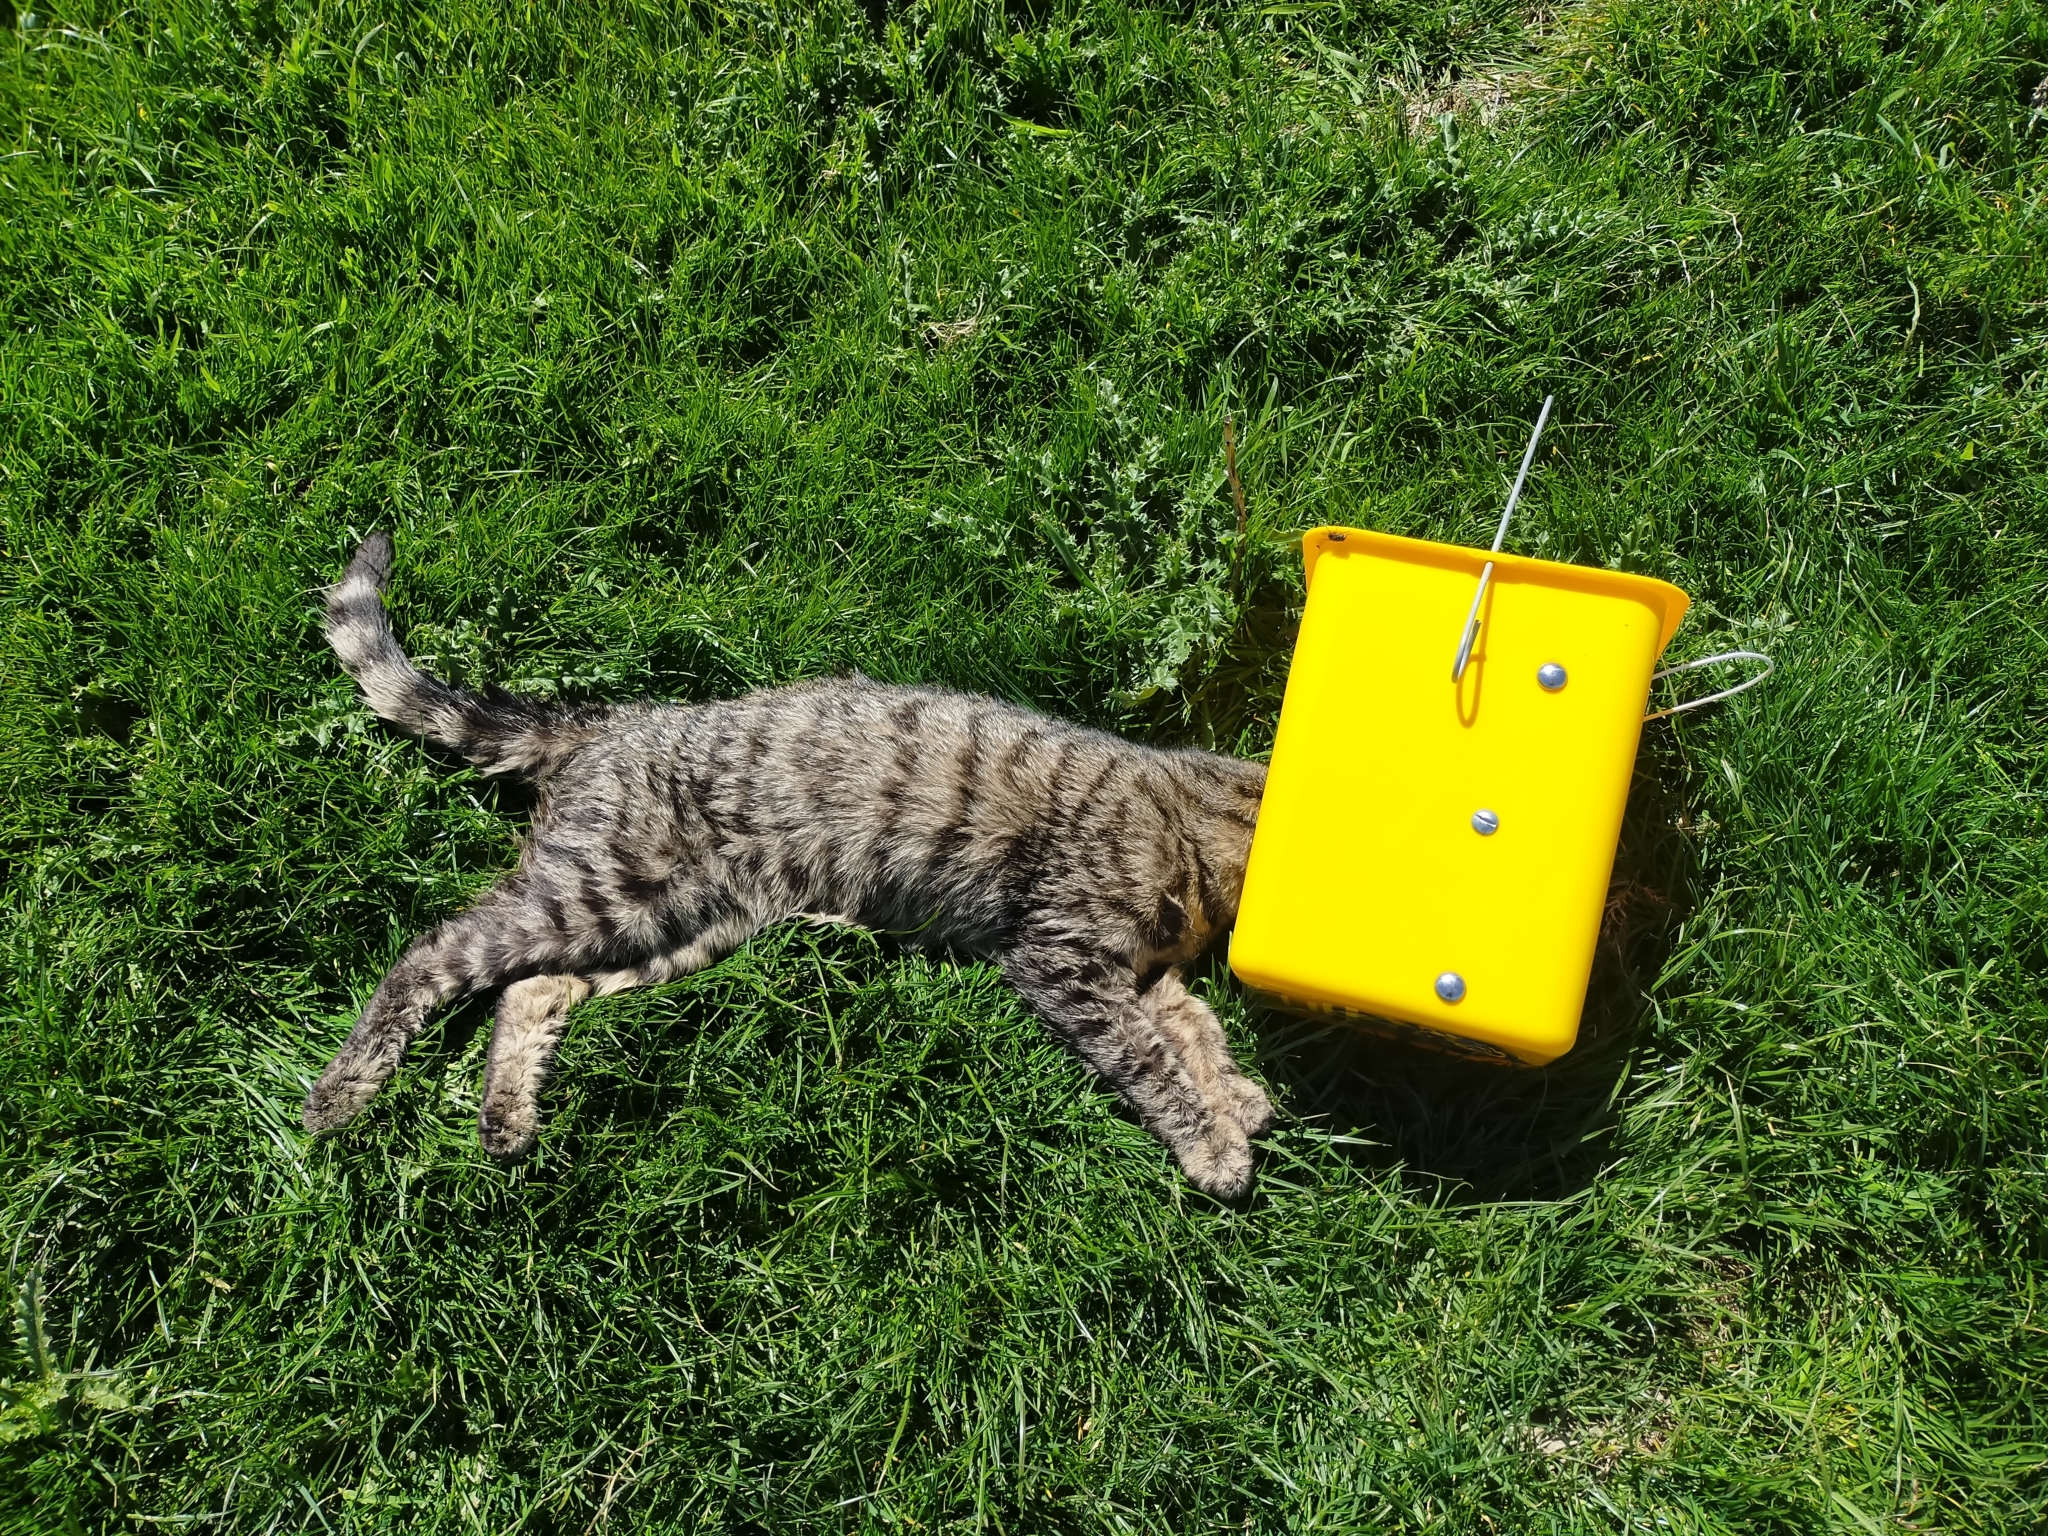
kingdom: Animalia
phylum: Chordata
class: Mammalia
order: Carnivora
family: Felidae
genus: Felis
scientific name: Felis catus
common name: Domestic cat
